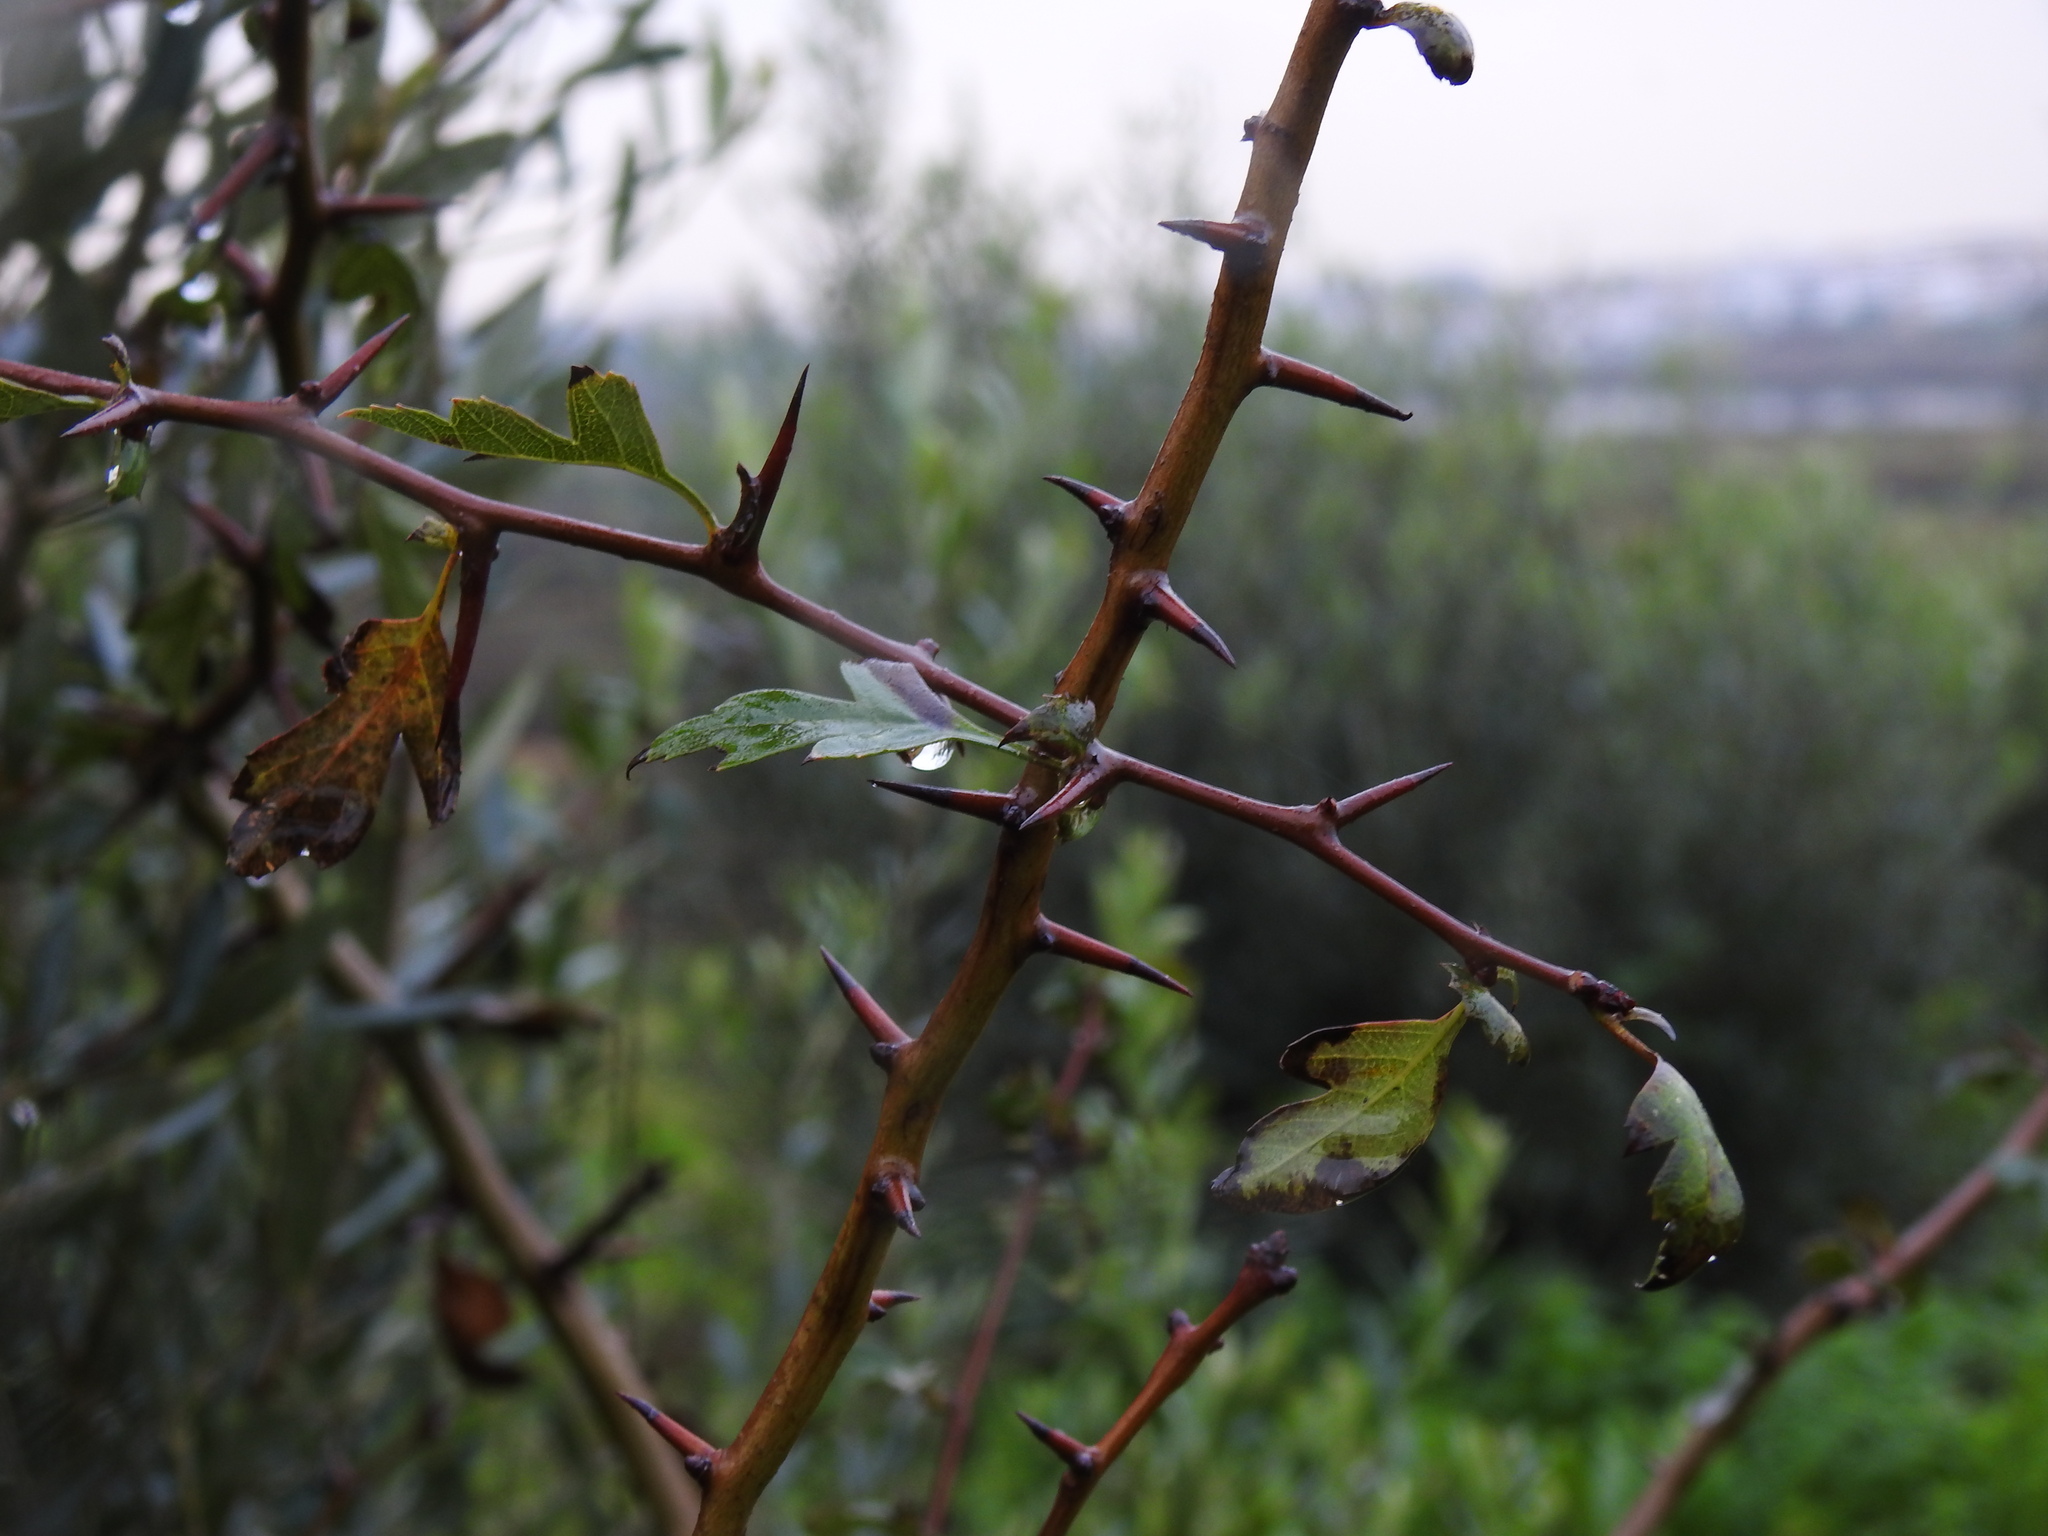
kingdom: Plantae
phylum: Tracheophyta
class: Magnoliopsida
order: Rosales
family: Rosaceae
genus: Crataegus
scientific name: Crataegus monogyna
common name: Hawthorn
